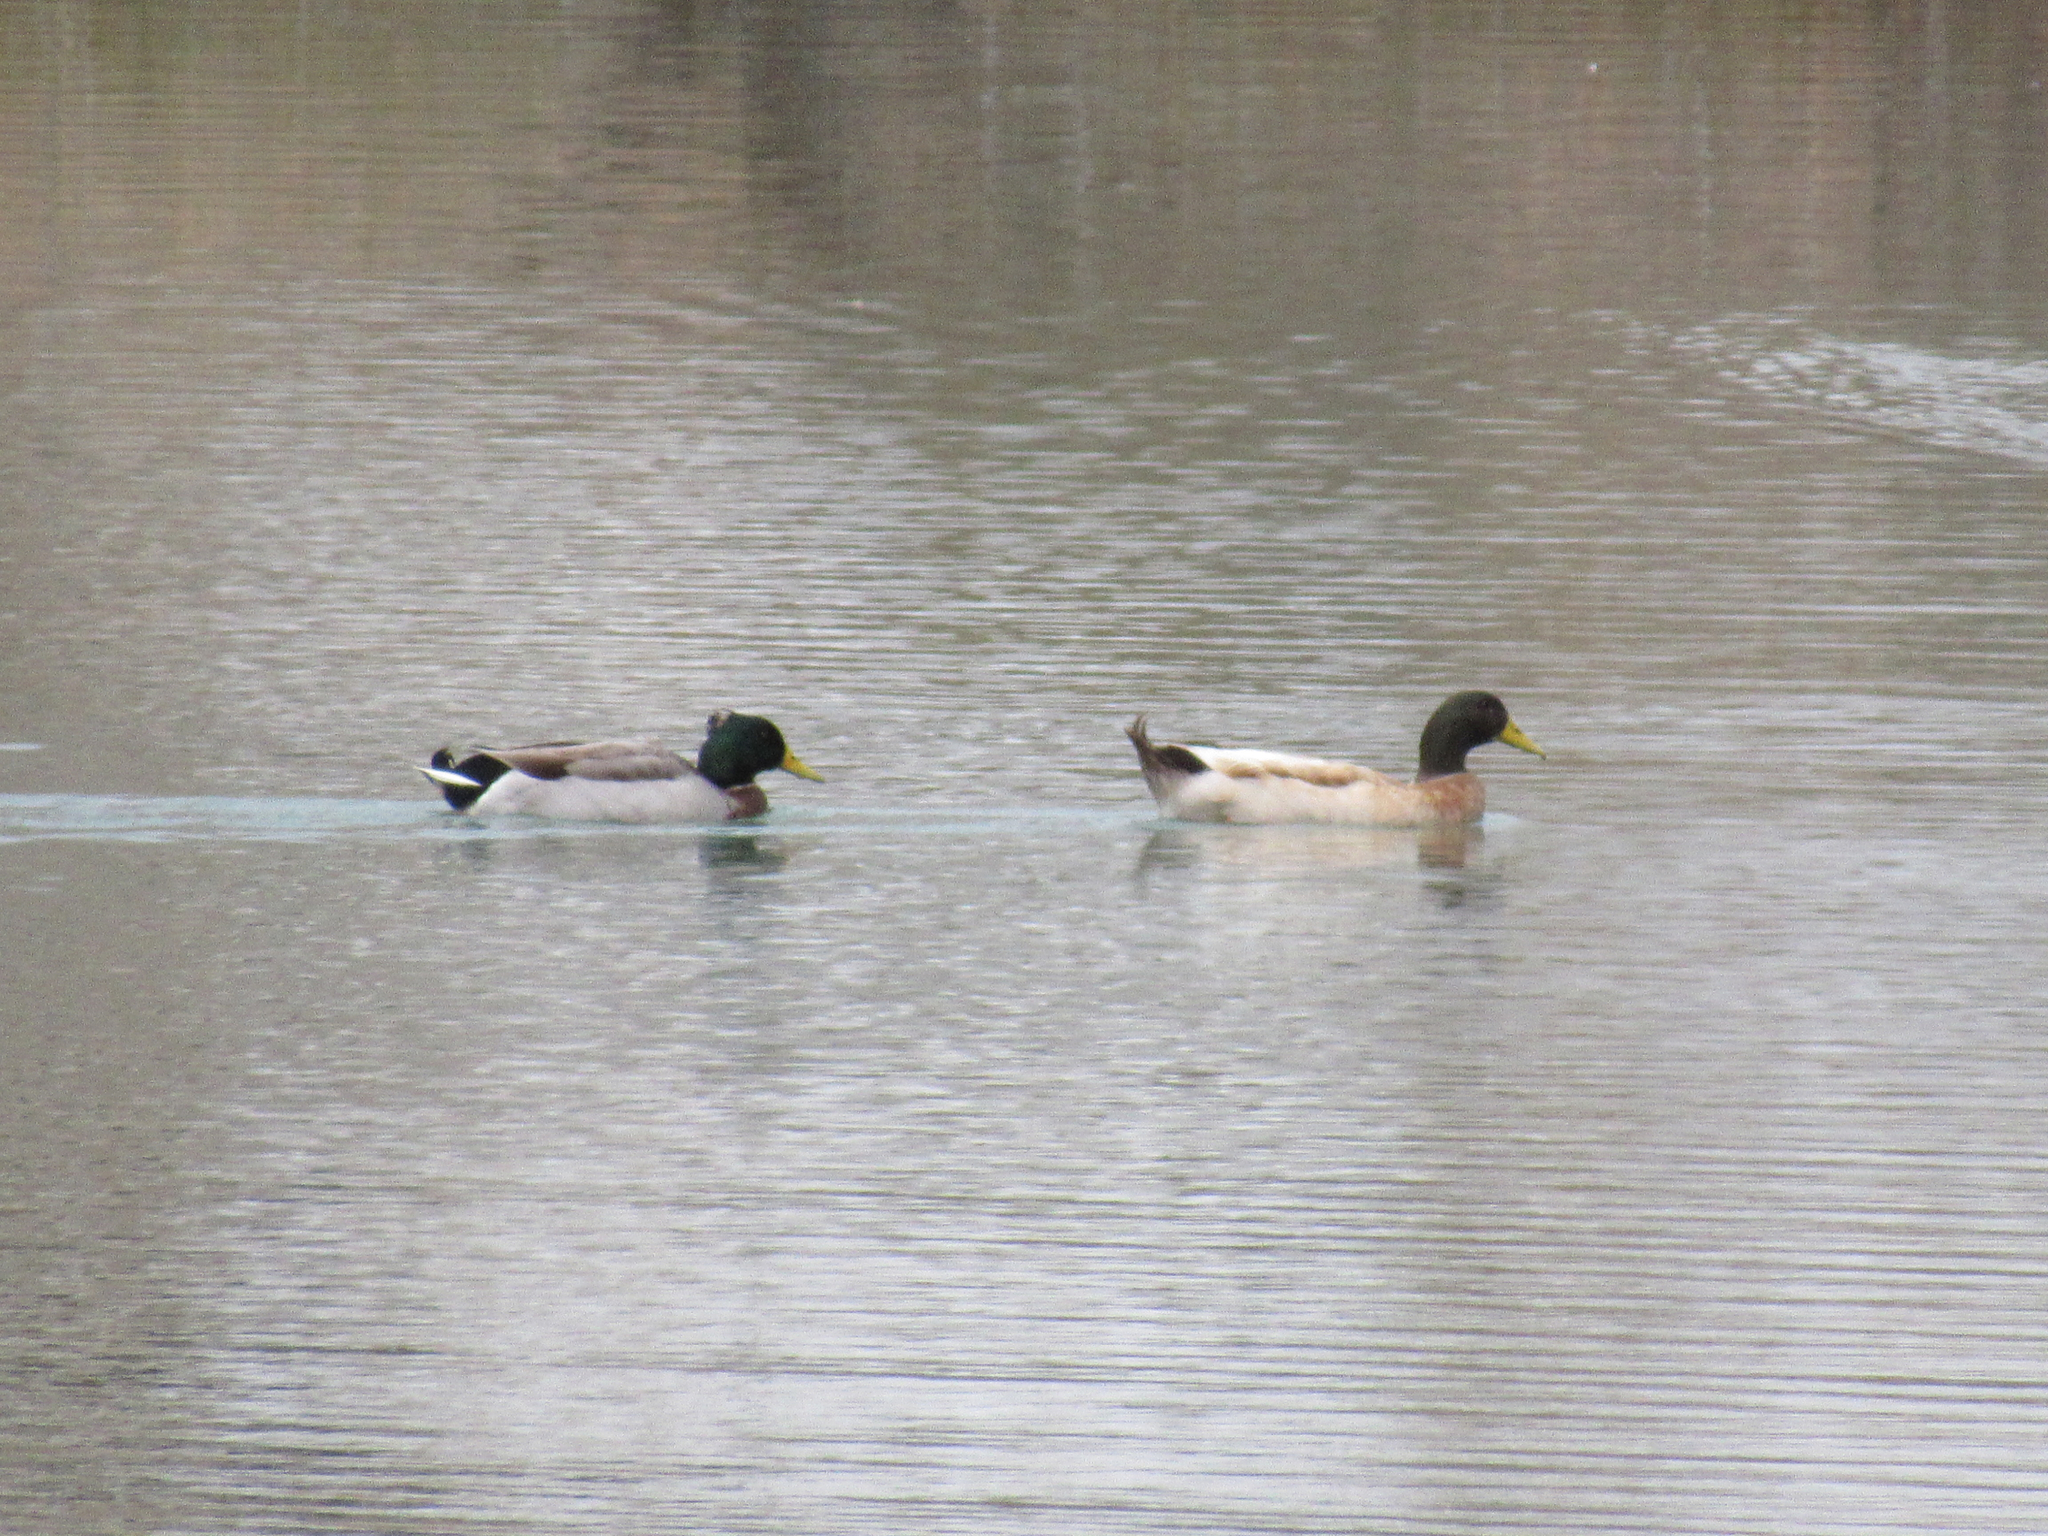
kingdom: Animalia
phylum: Chordata
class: Aves
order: Anseriformes
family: Anatidae
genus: Anas
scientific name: Anas platyrhynchos
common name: Mallard
